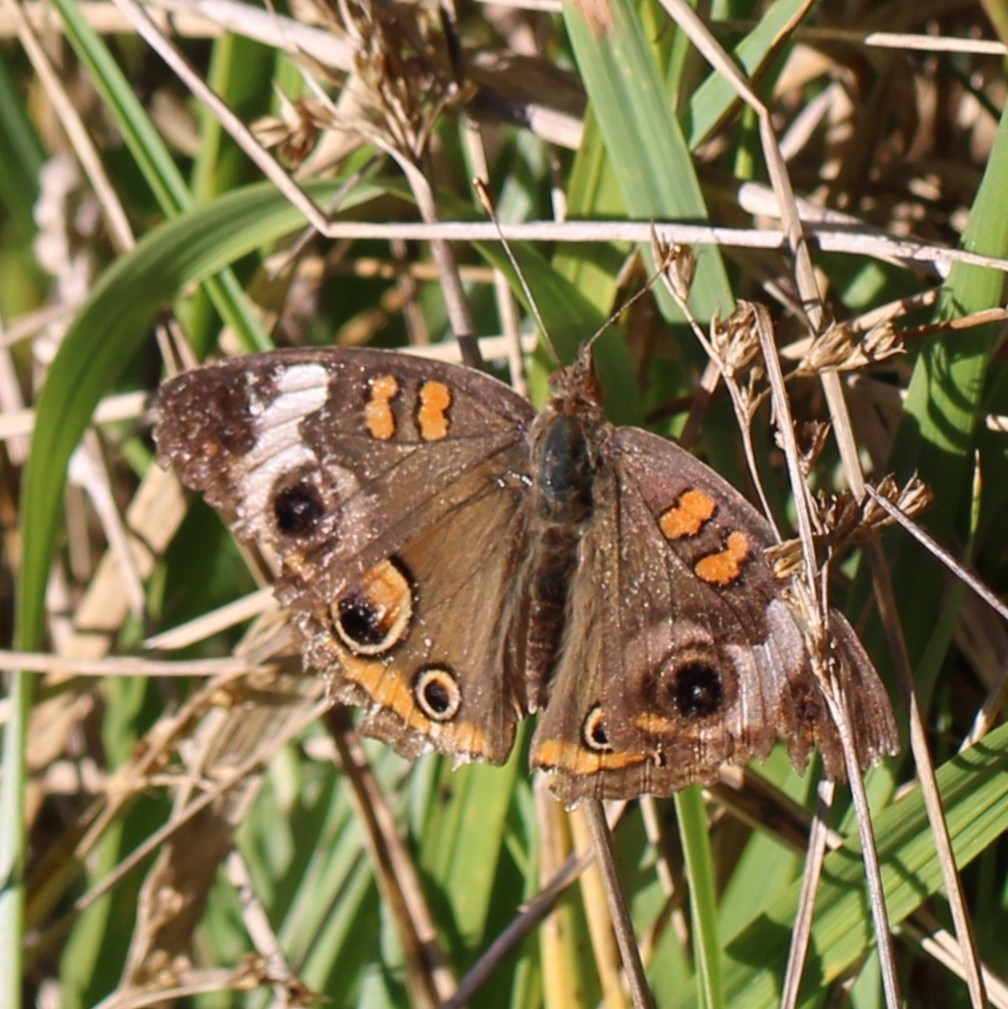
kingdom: Animalia
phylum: Arthropoda
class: Insecta
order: Lepidoptera
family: Nymphalidae
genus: Junonia
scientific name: Junonia coenia
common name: Common buckeye
